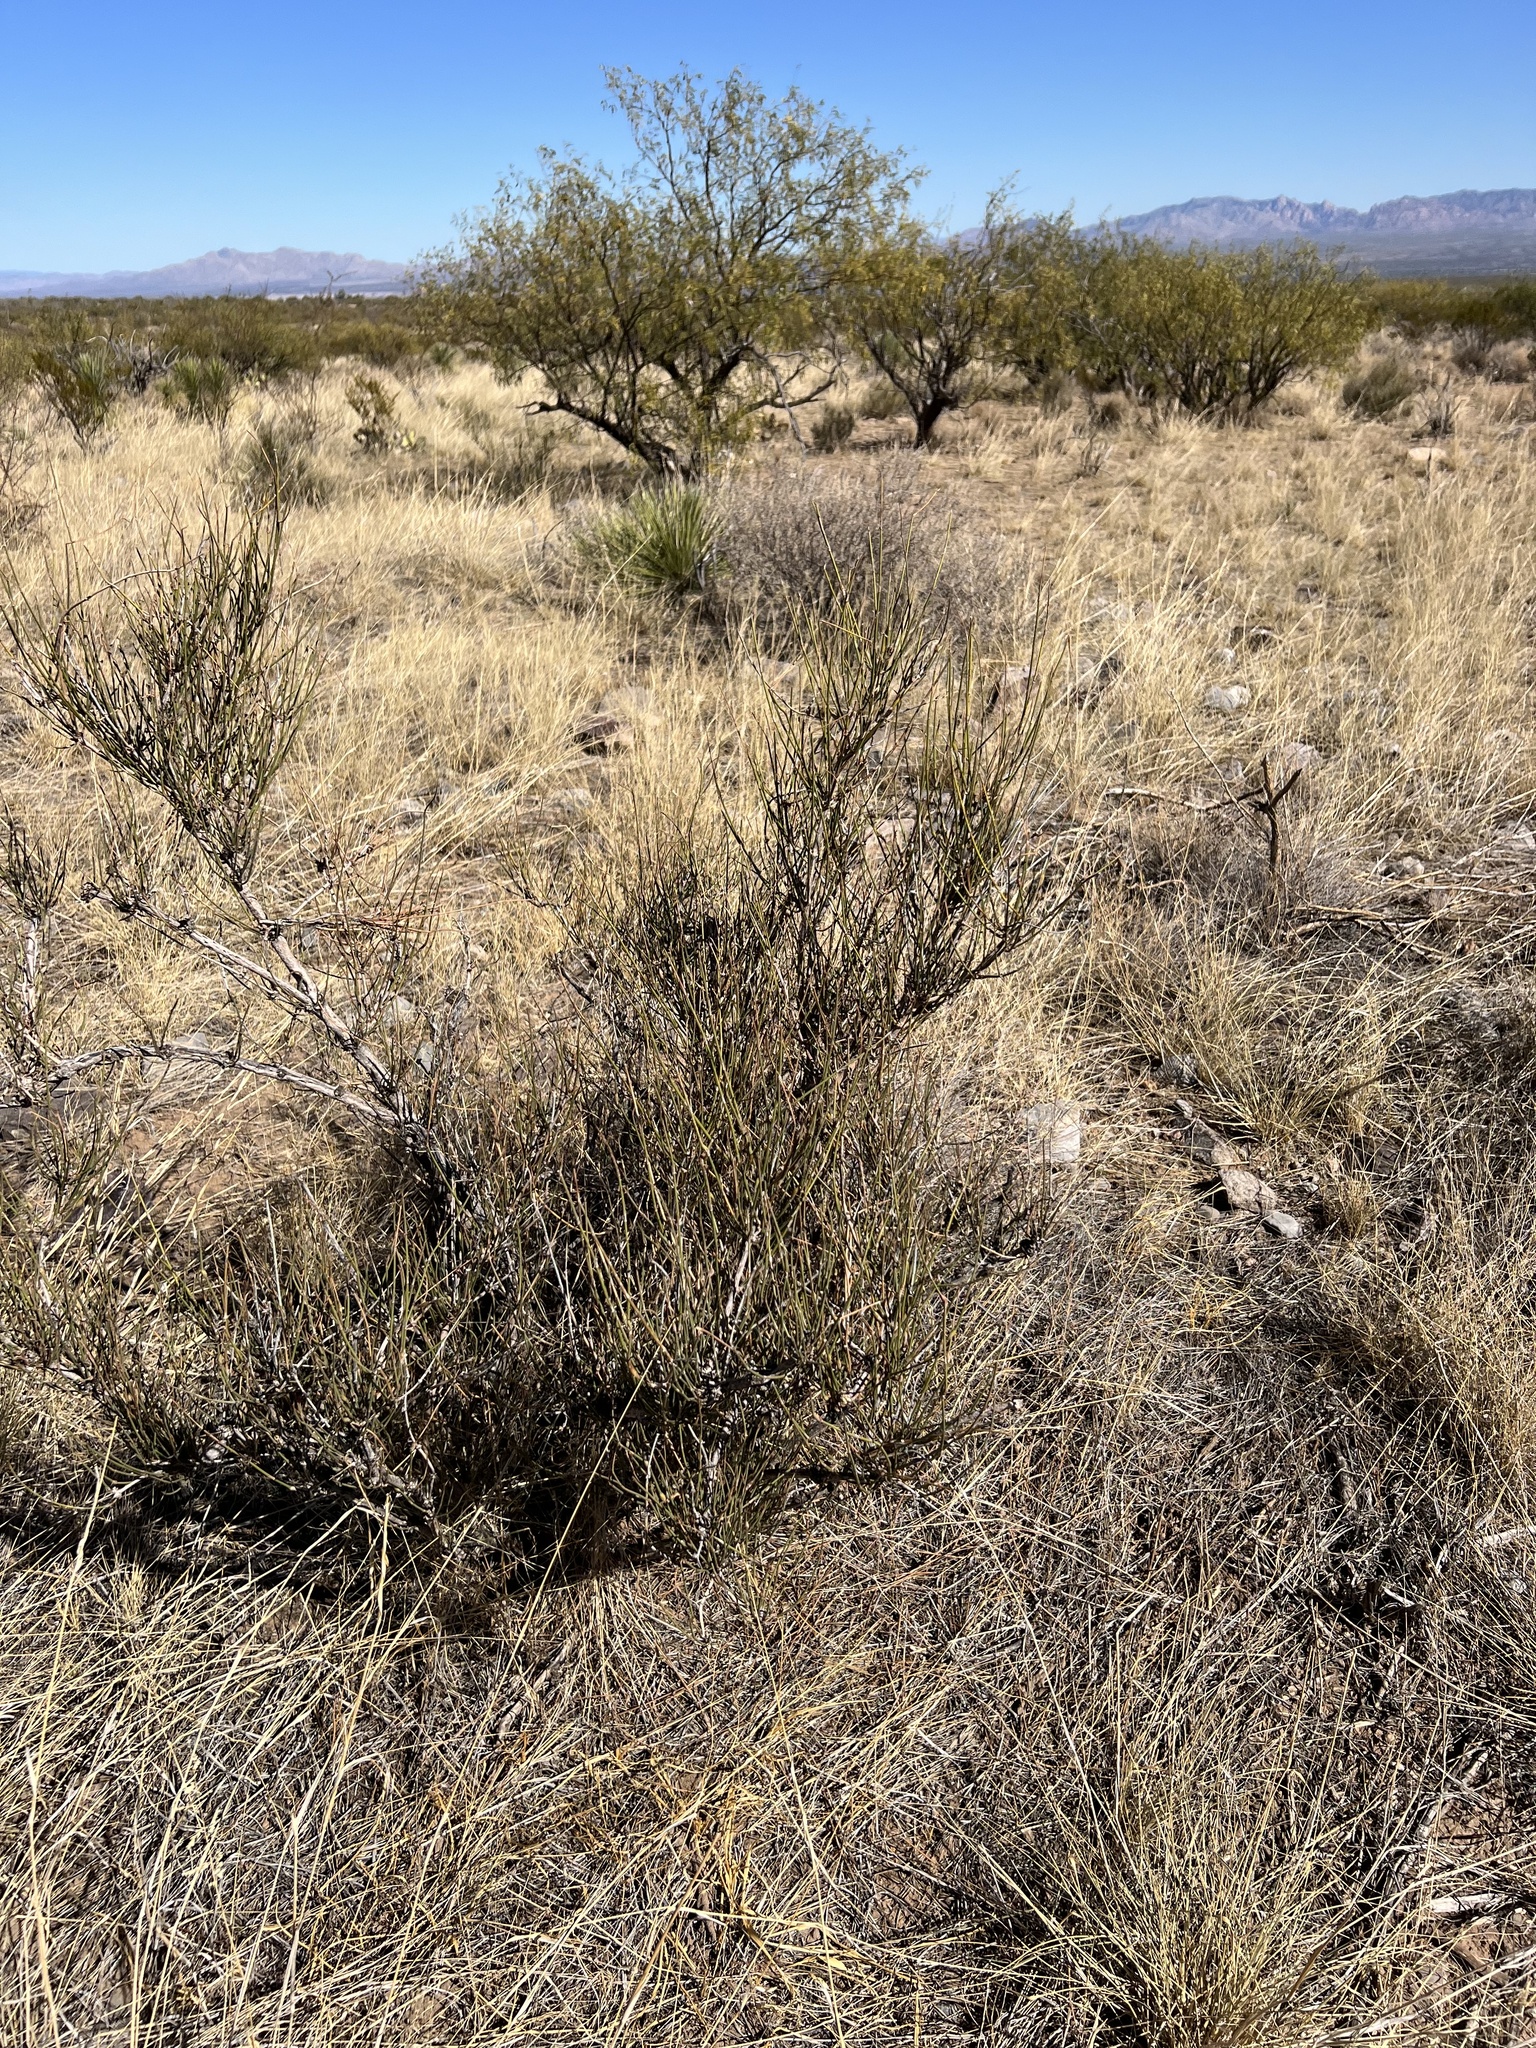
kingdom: Plantae
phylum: Tracheophyta
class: Gnetopsida
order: Ephedrales
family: Ephedraceae
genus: Ephedra
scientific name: Ephedra trifurca
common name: Mexican-tea
